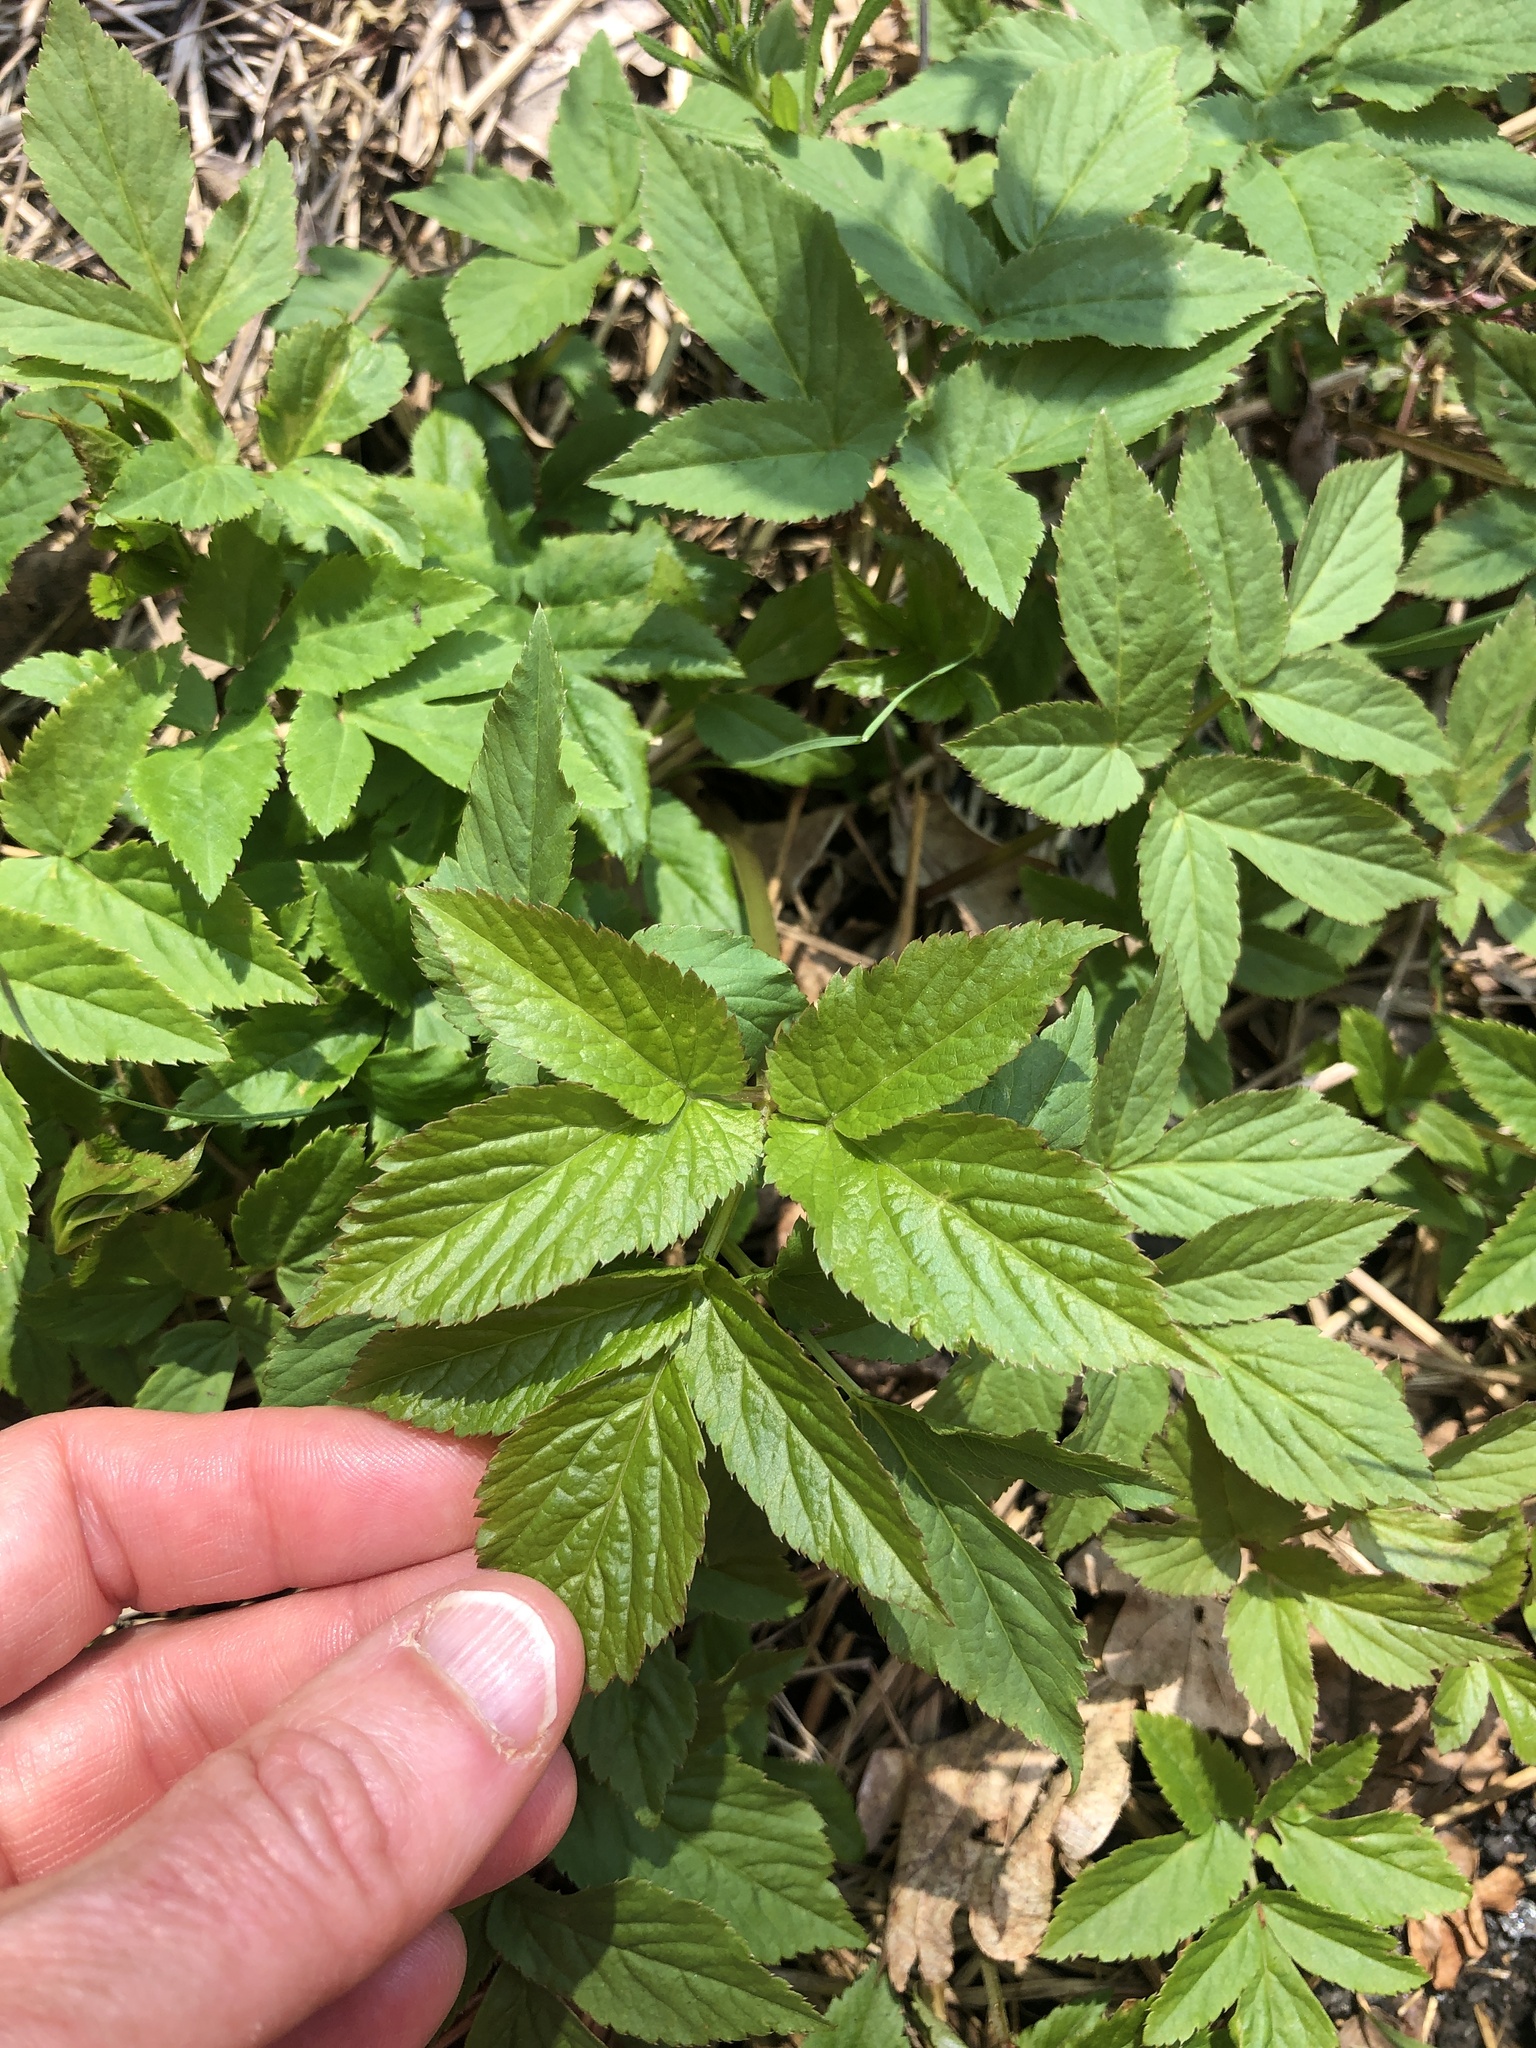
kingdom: Plantae
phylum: Tracheophyta
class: Magnoliopsida
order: Apiales
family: Apiaceae
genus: Aegopodium
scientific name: Aegopodium podagraria
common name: Ground-elder
